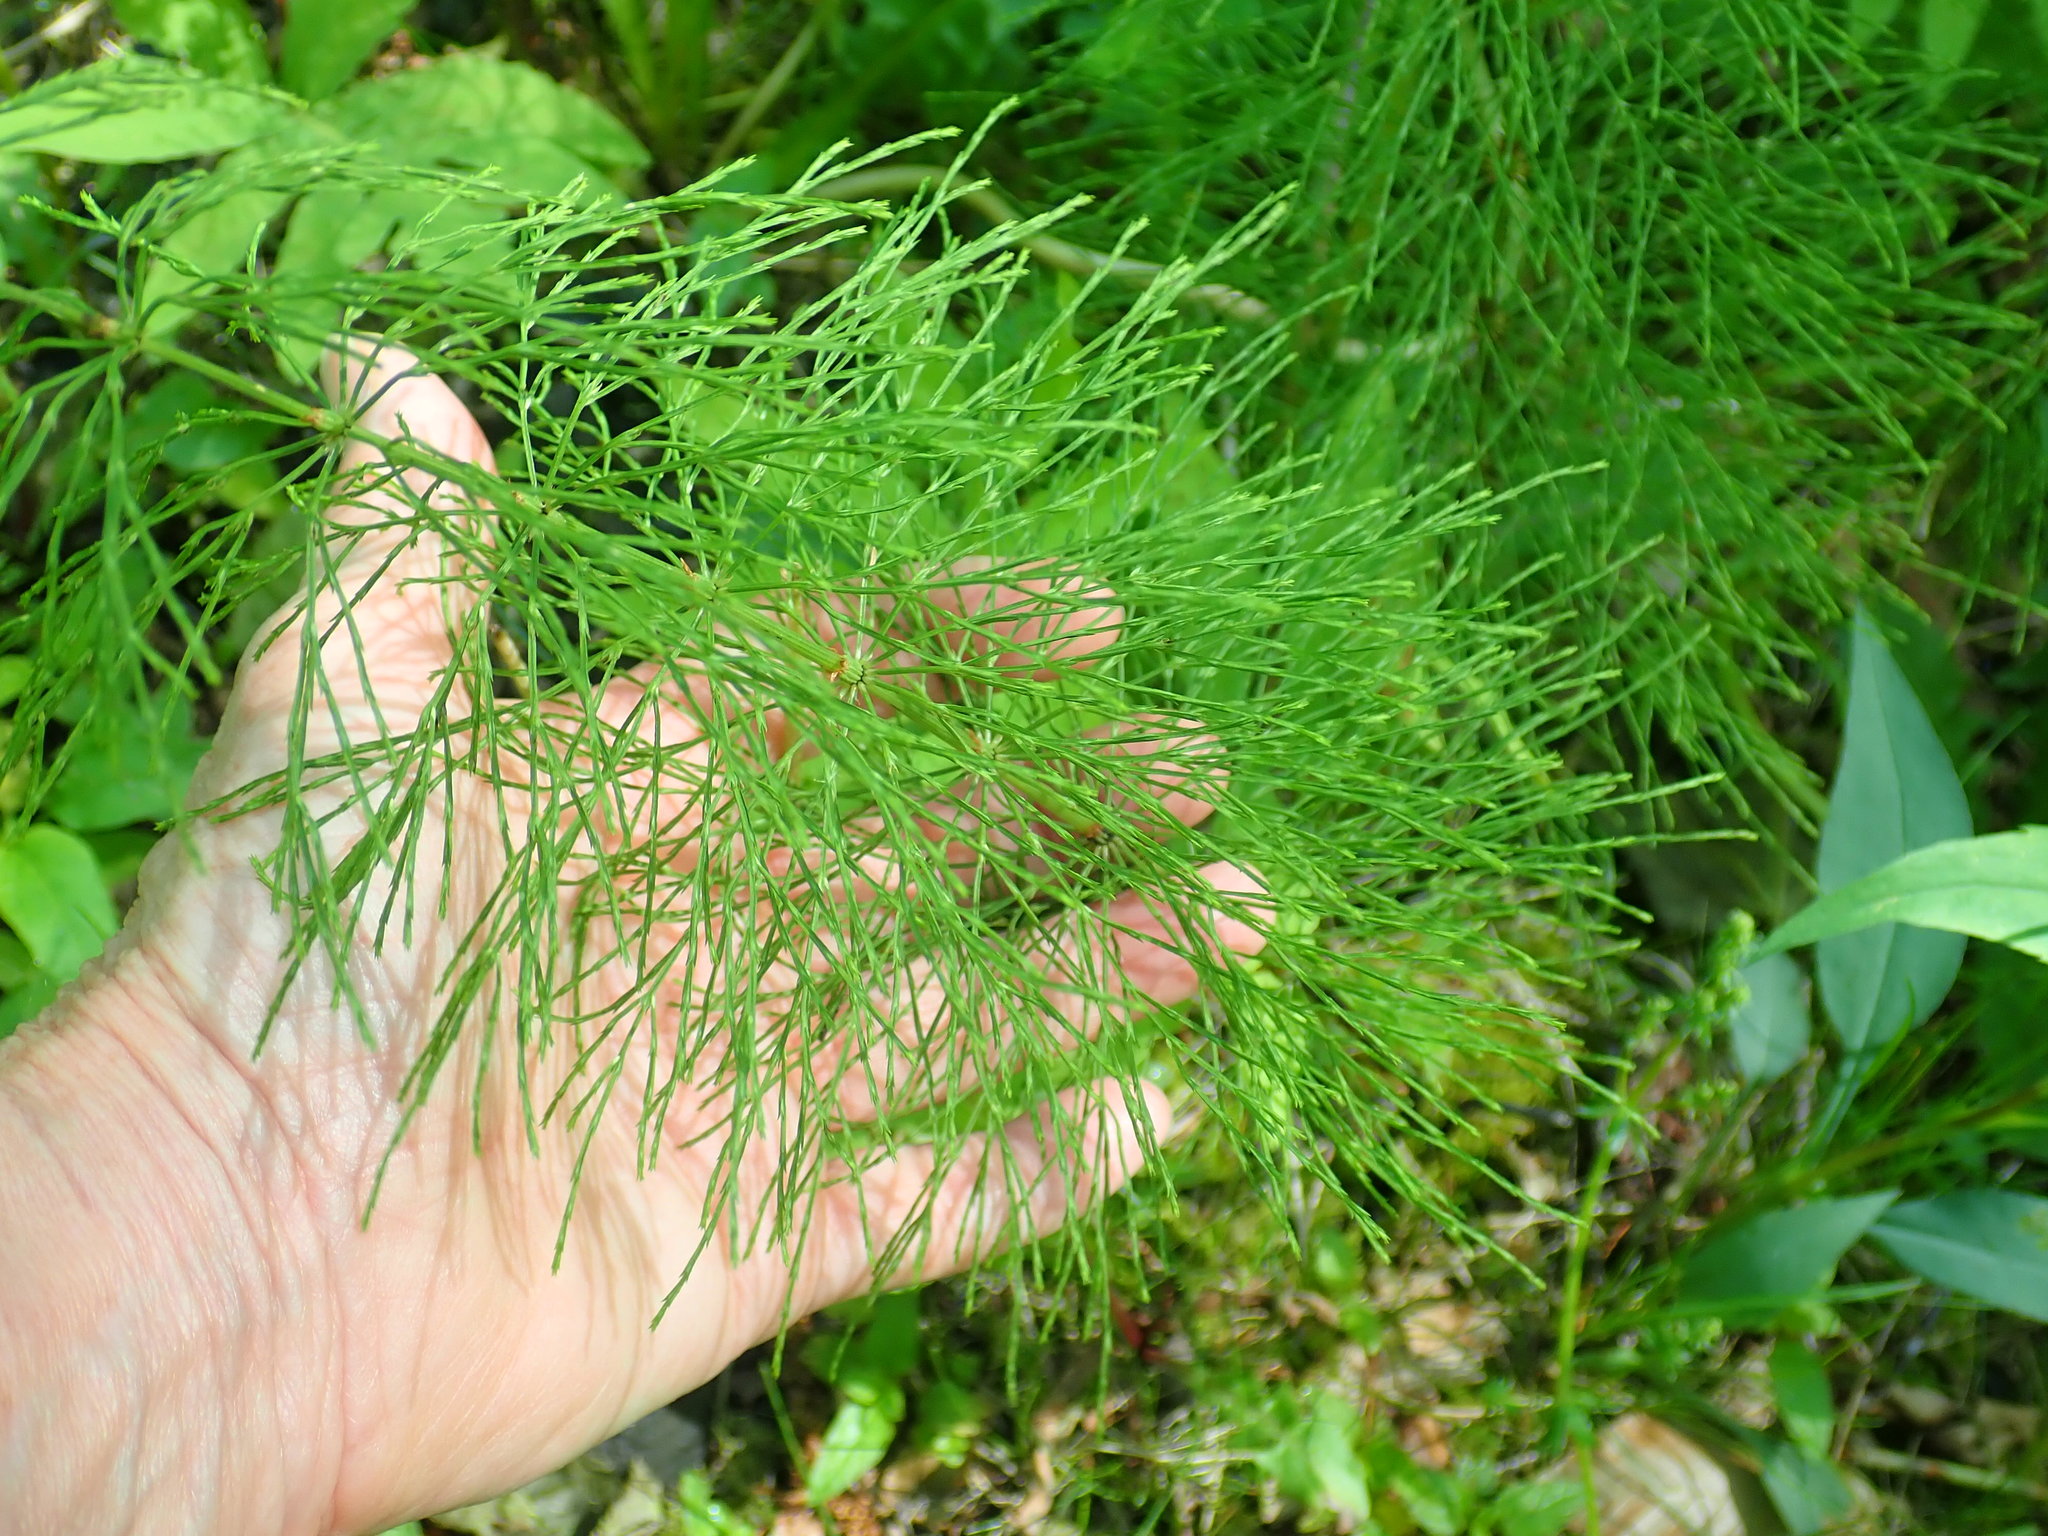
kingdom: Plantae
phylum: Tracheophyta
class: Polypodiopsida
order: Equisetales
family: Equisetaceae
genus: Equisetum
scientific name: Equisetum sylvaticum
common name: Wood horsetail
